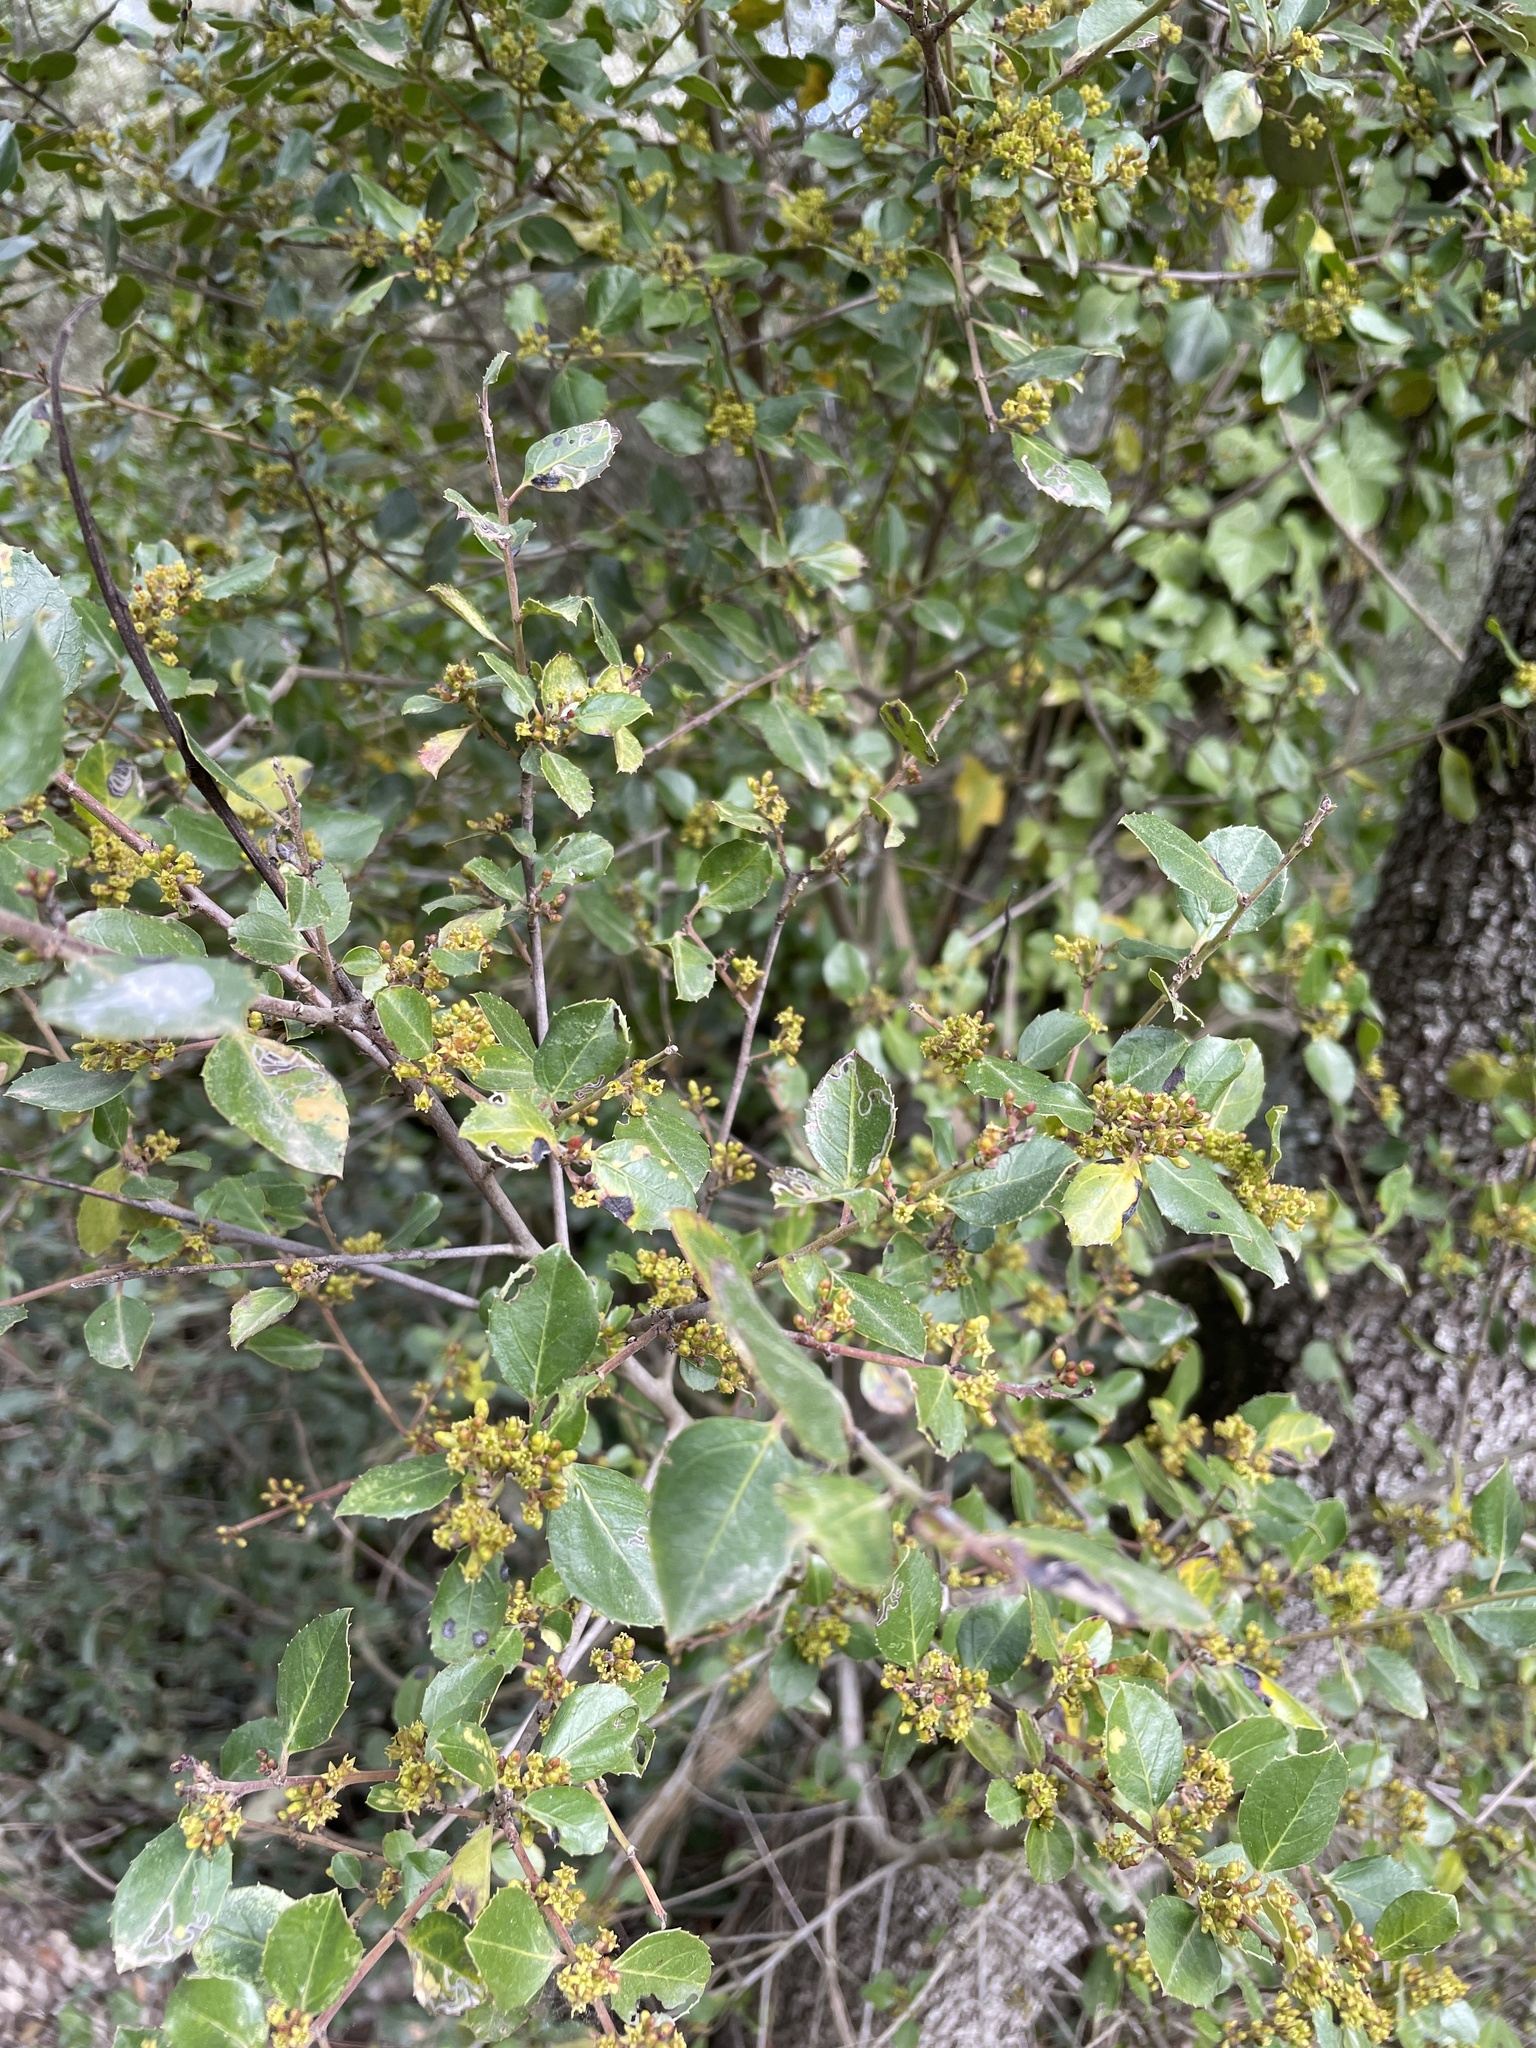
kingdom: Plantae
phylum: Tracheophyta
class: Magnoliopsida
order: Rosales
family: Rhamnaceae
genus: Rhamnus
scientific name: Rhamnus alaternus
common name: Mediterranean buckthorn
